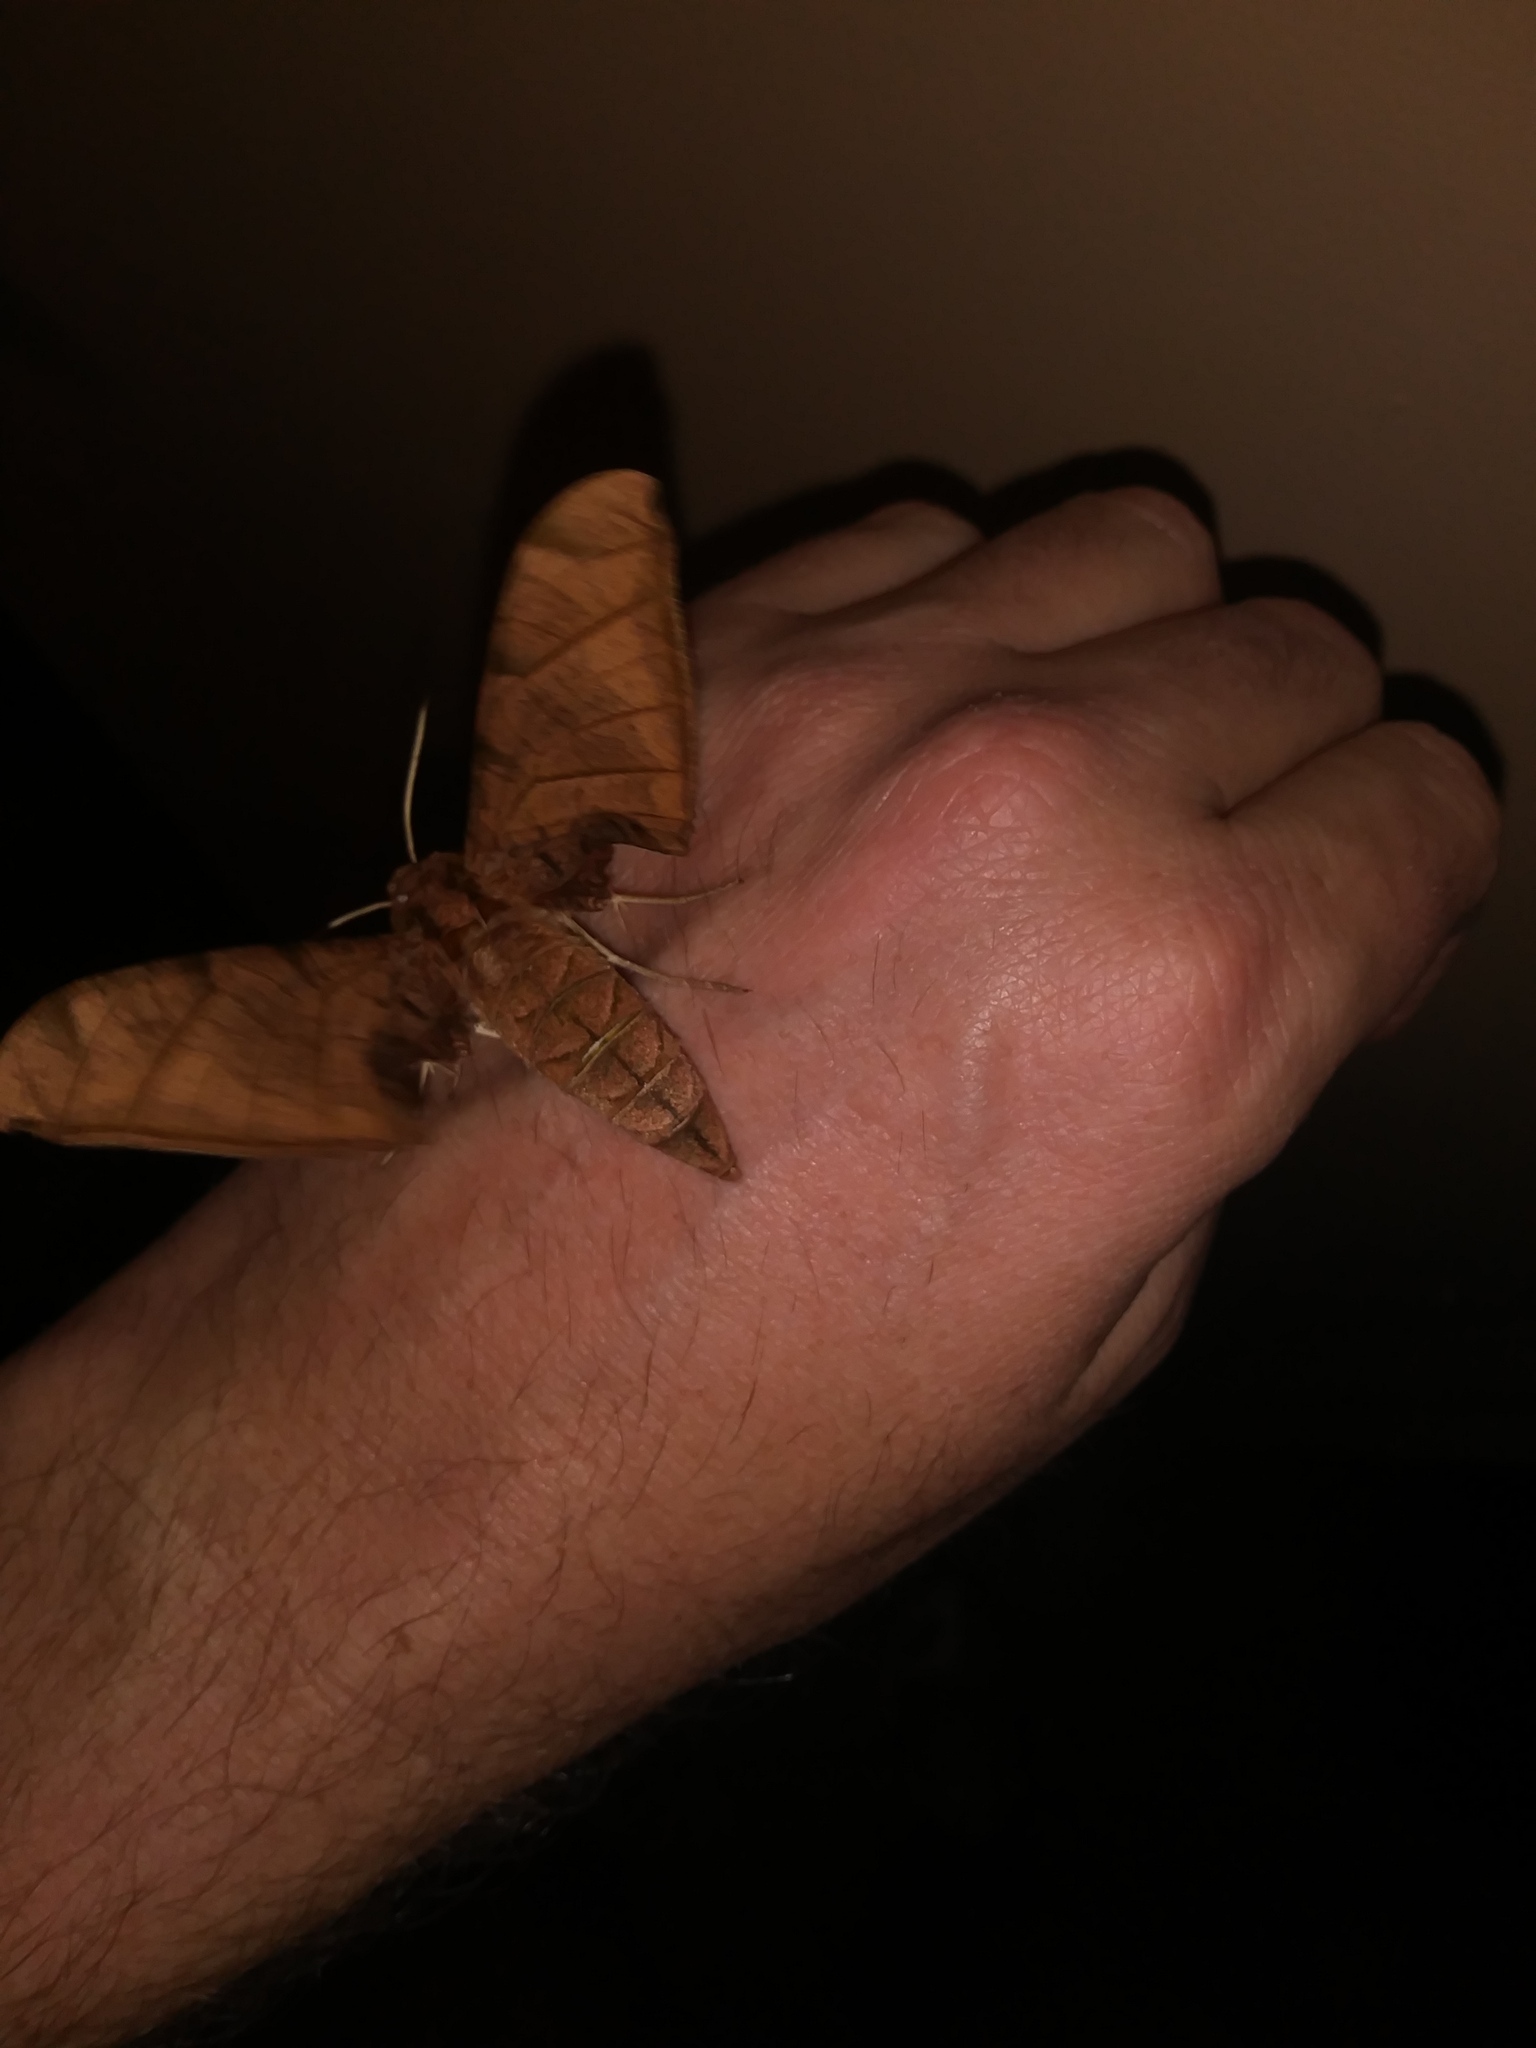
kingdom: Animalia
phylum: Arthropoda
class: Insecta
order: Lepidoptera
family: Sphingidae
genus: Protambulyx
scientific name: Protambulyx strigilis
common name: Streaked sphinx
